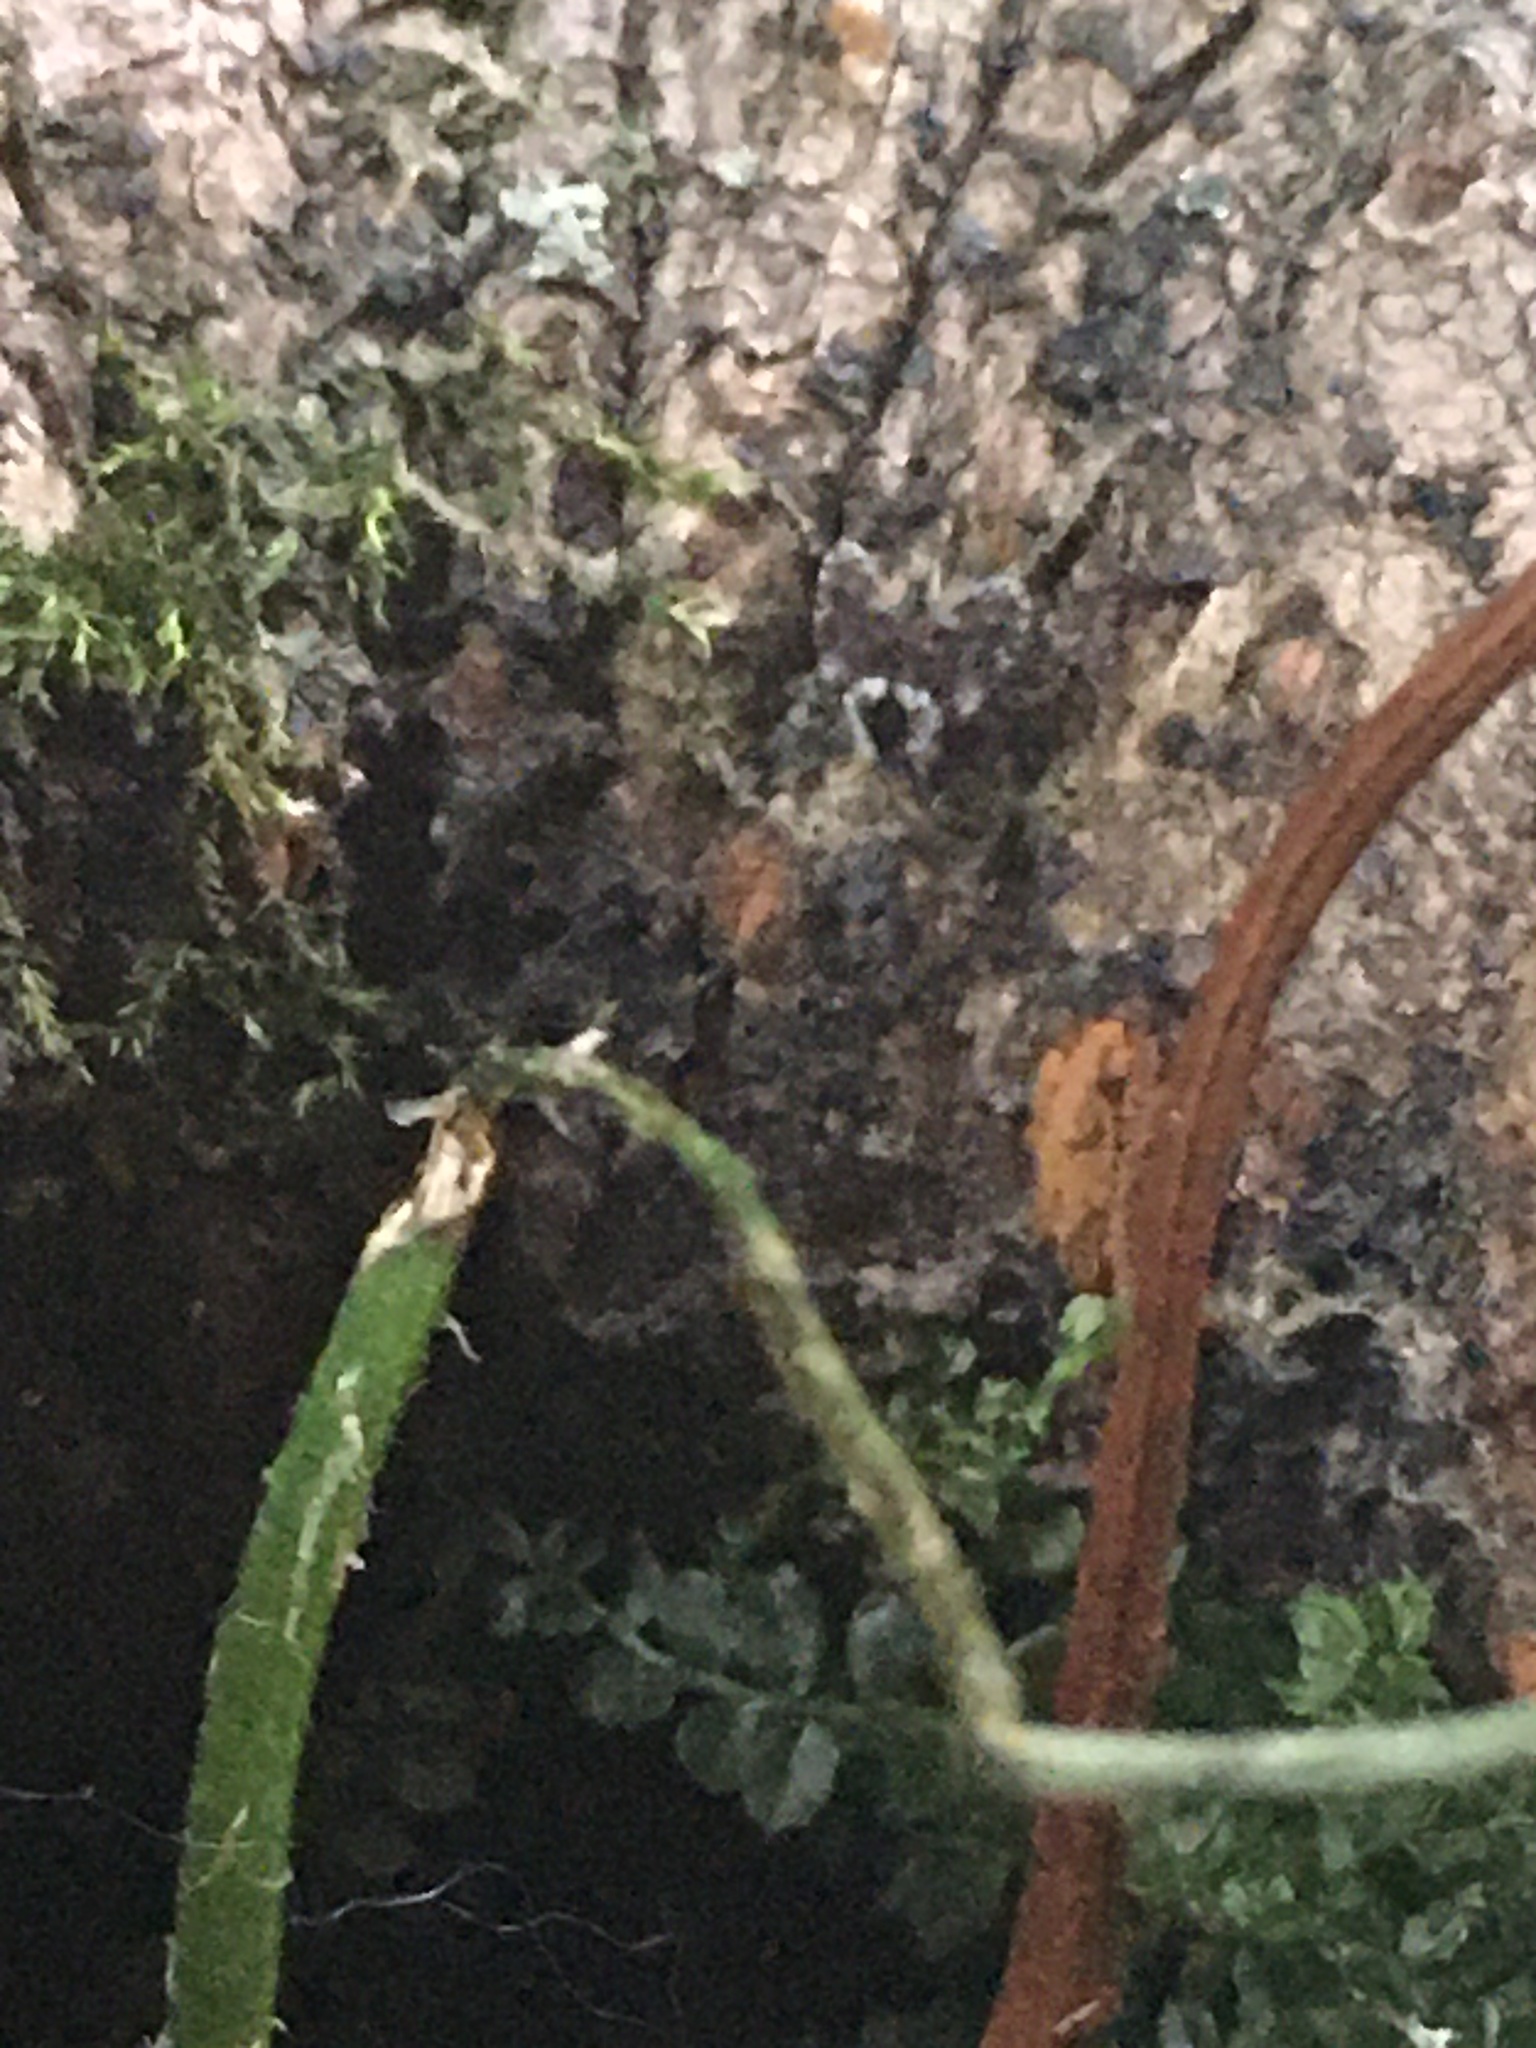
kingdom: Animalia
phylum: Arthropoda
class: Insecta
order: Diptera
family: Psychodidae
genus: Lepiseodina
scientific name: Lepiseodina
